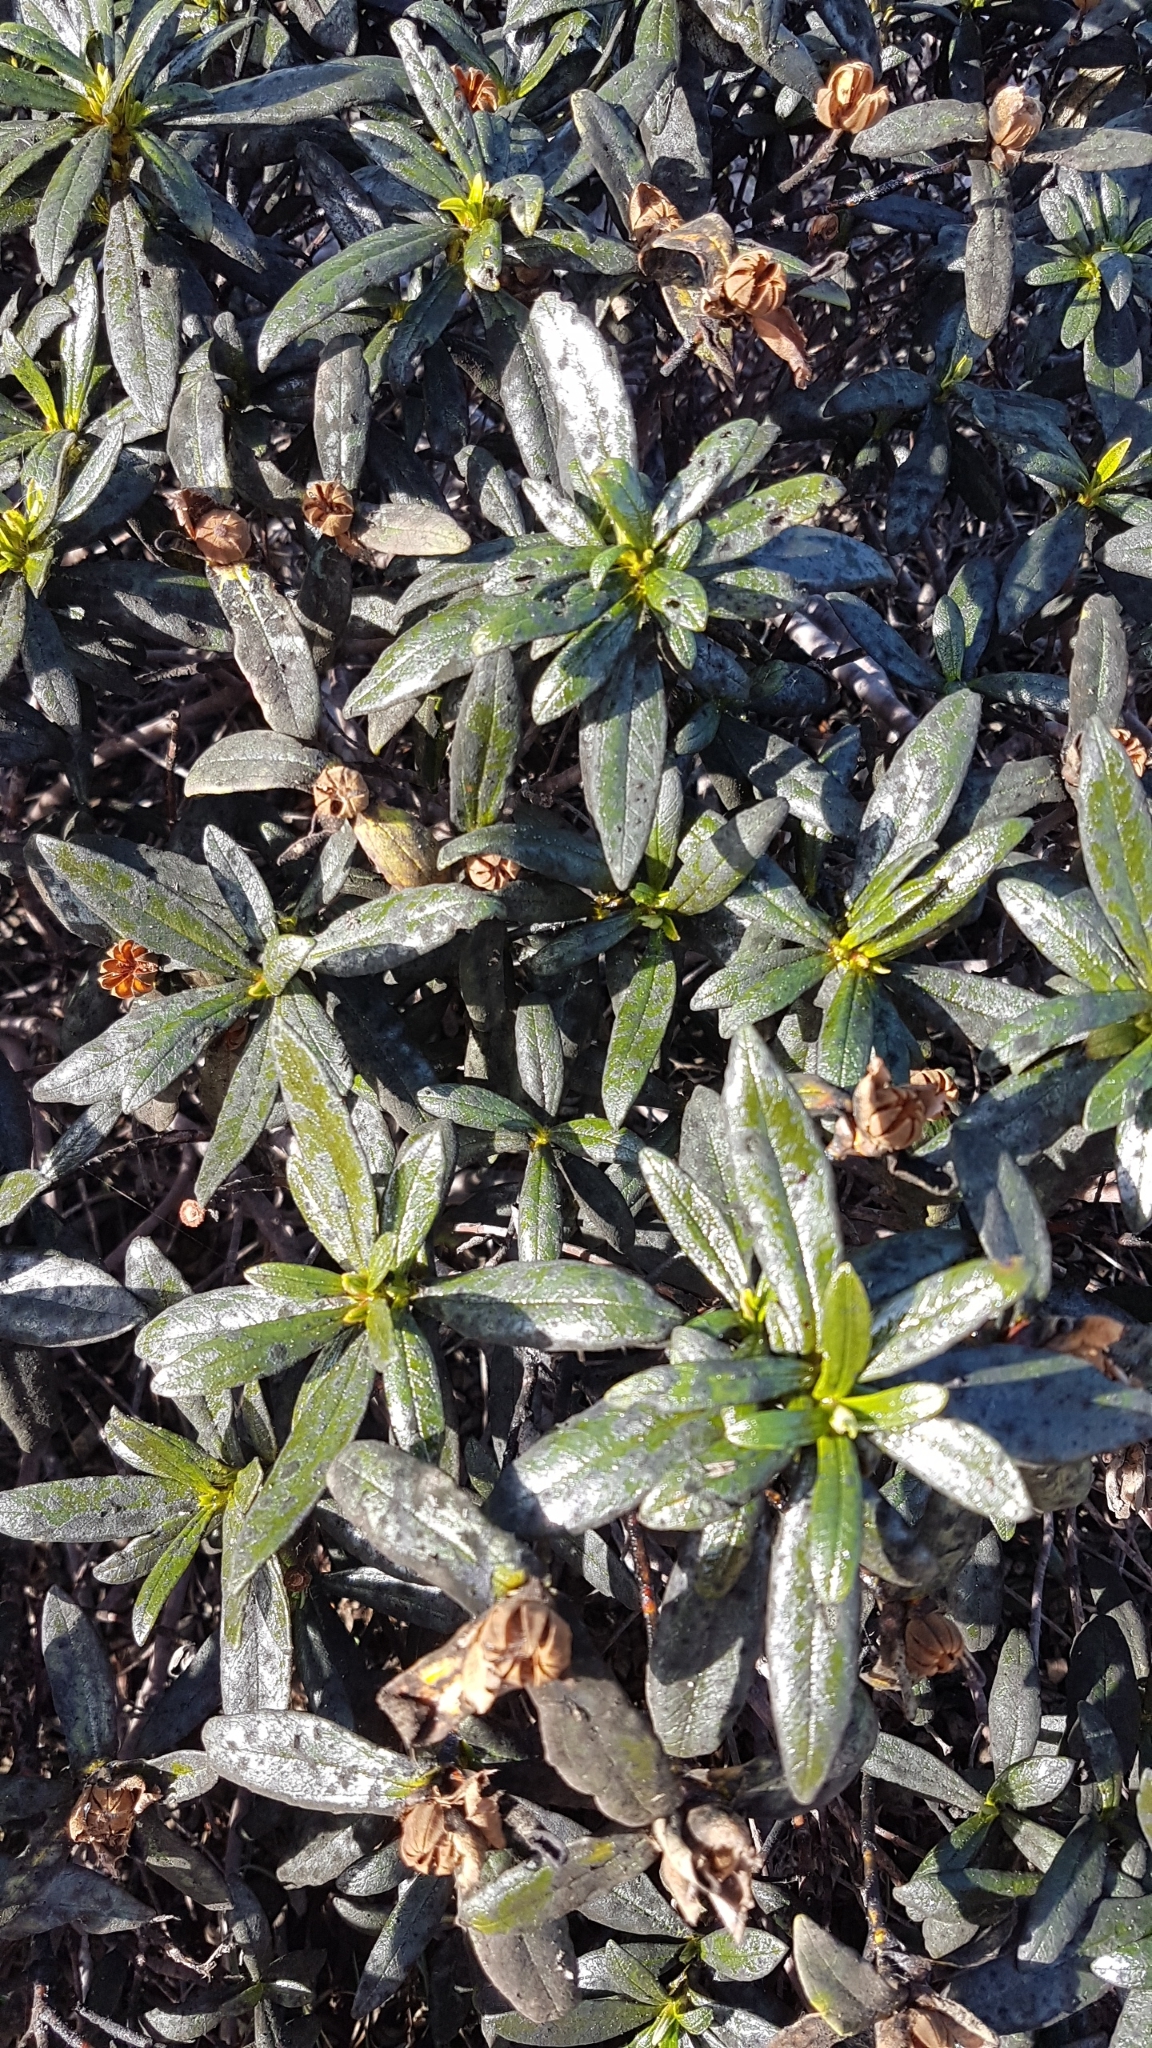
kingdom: Plantae
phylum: Tracheophyta
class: Magnoliopsida
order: Malvales
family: Cistaceae
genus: Cistus
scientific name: Cistus ladanifer
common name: Common gum cistus
